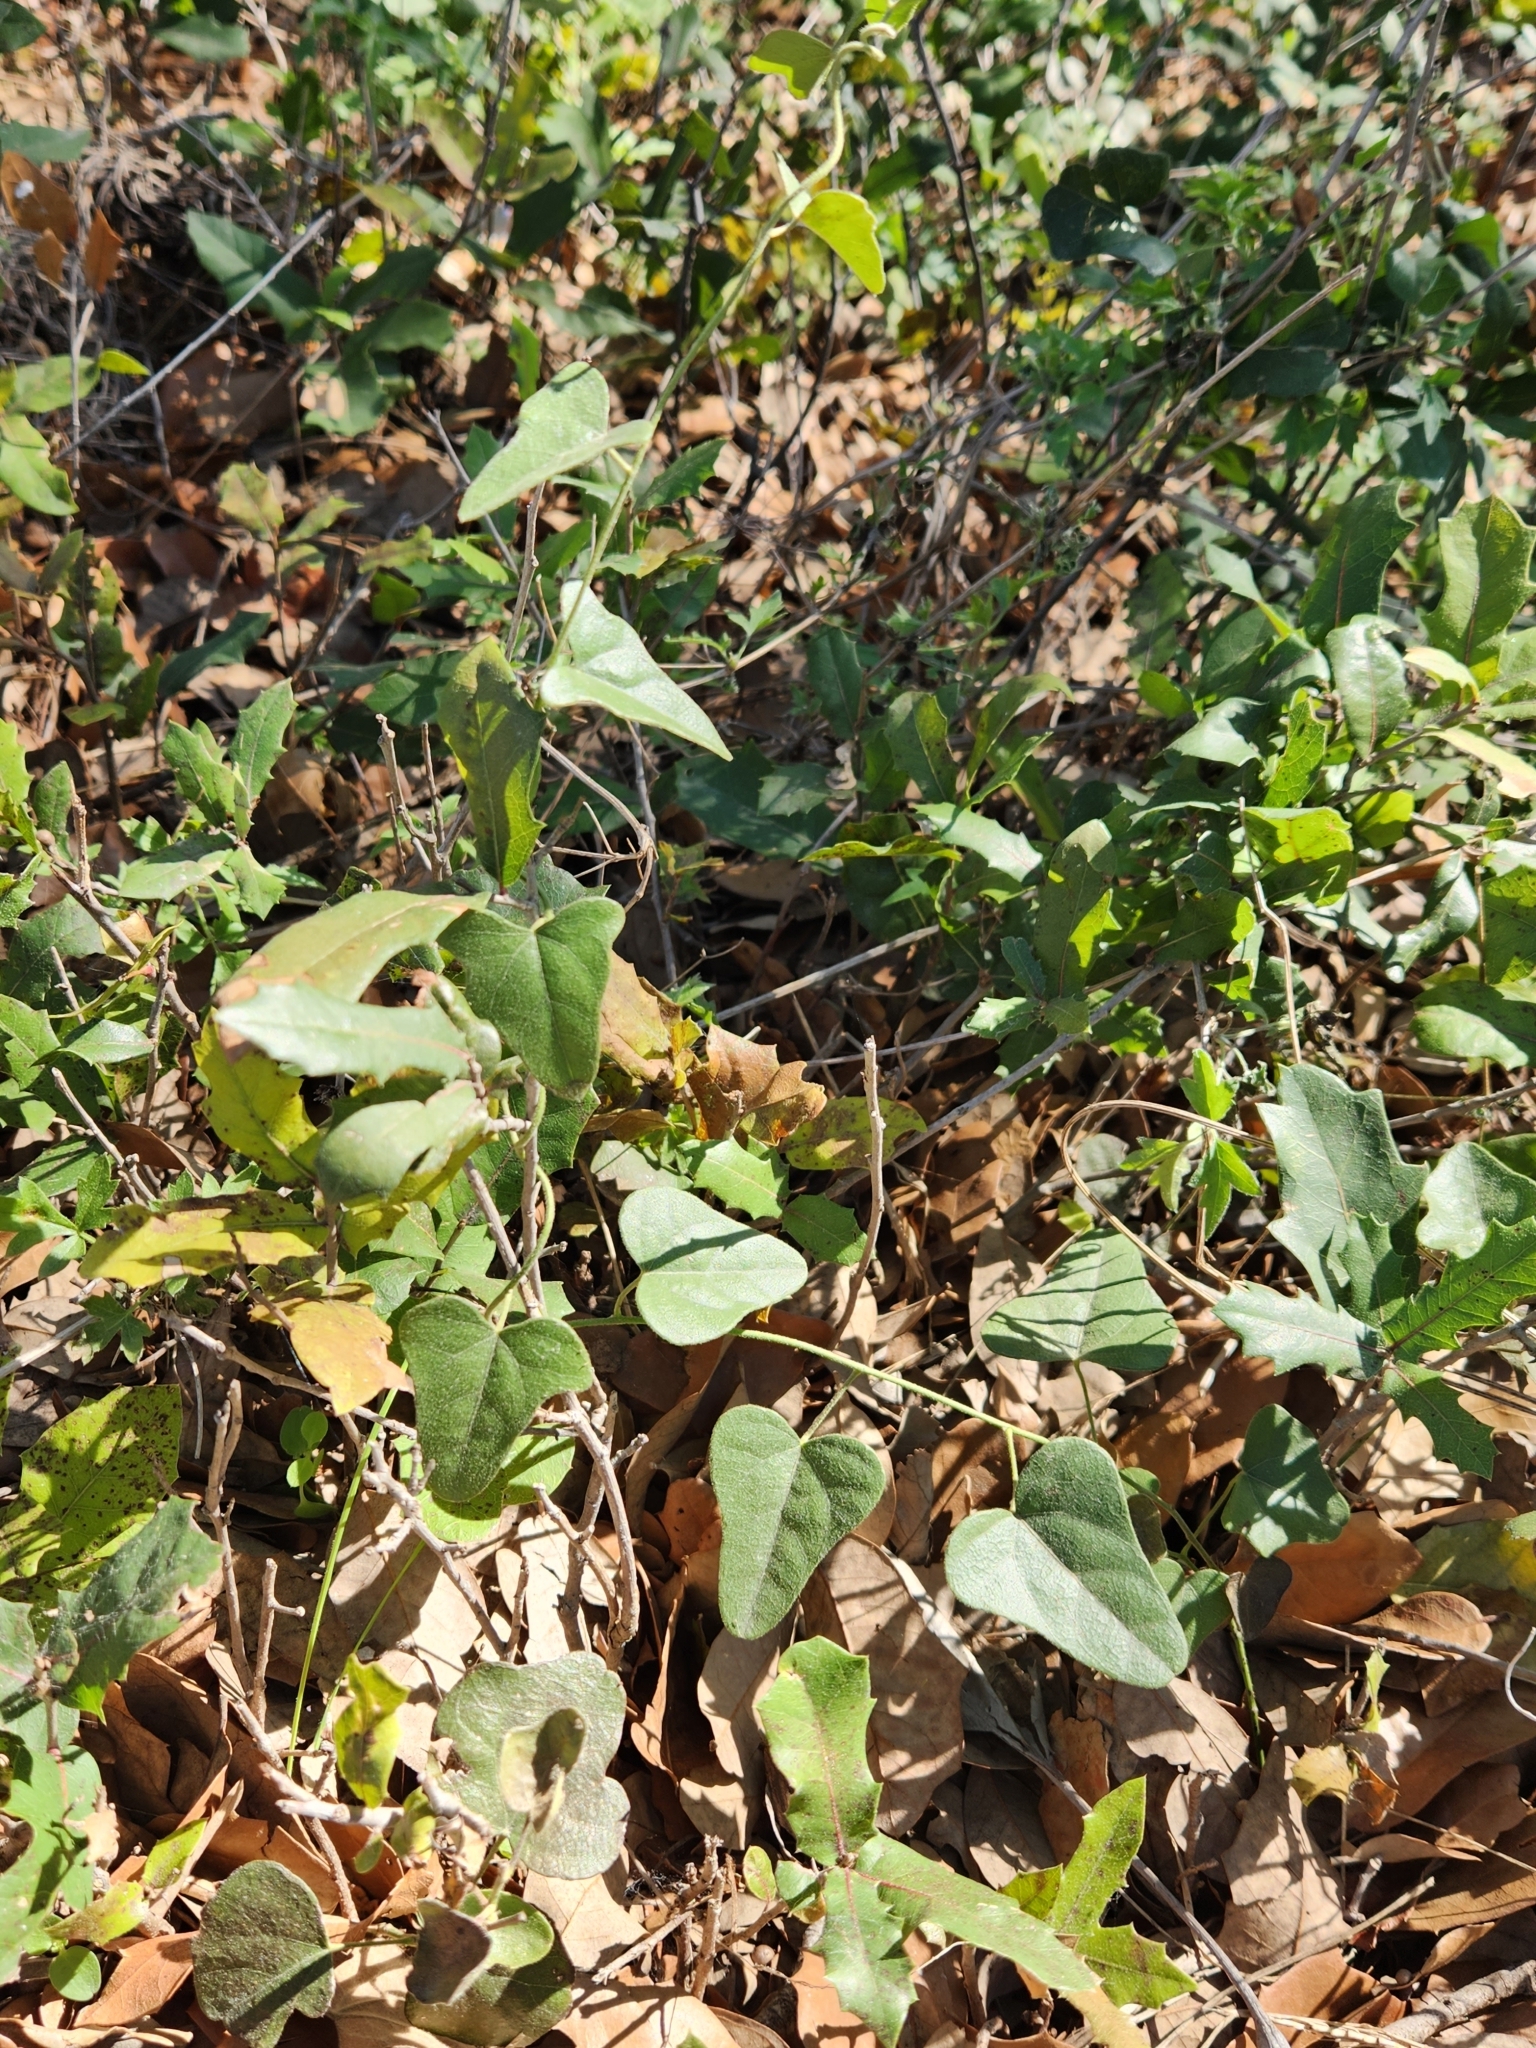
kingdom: Plantae
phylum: Tracheophyta
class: Magnoliopsida
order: Ranunculales
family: Menispermaceae
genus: Cocculus
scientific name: Cocculus carolinus
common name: Carolina moonseed
